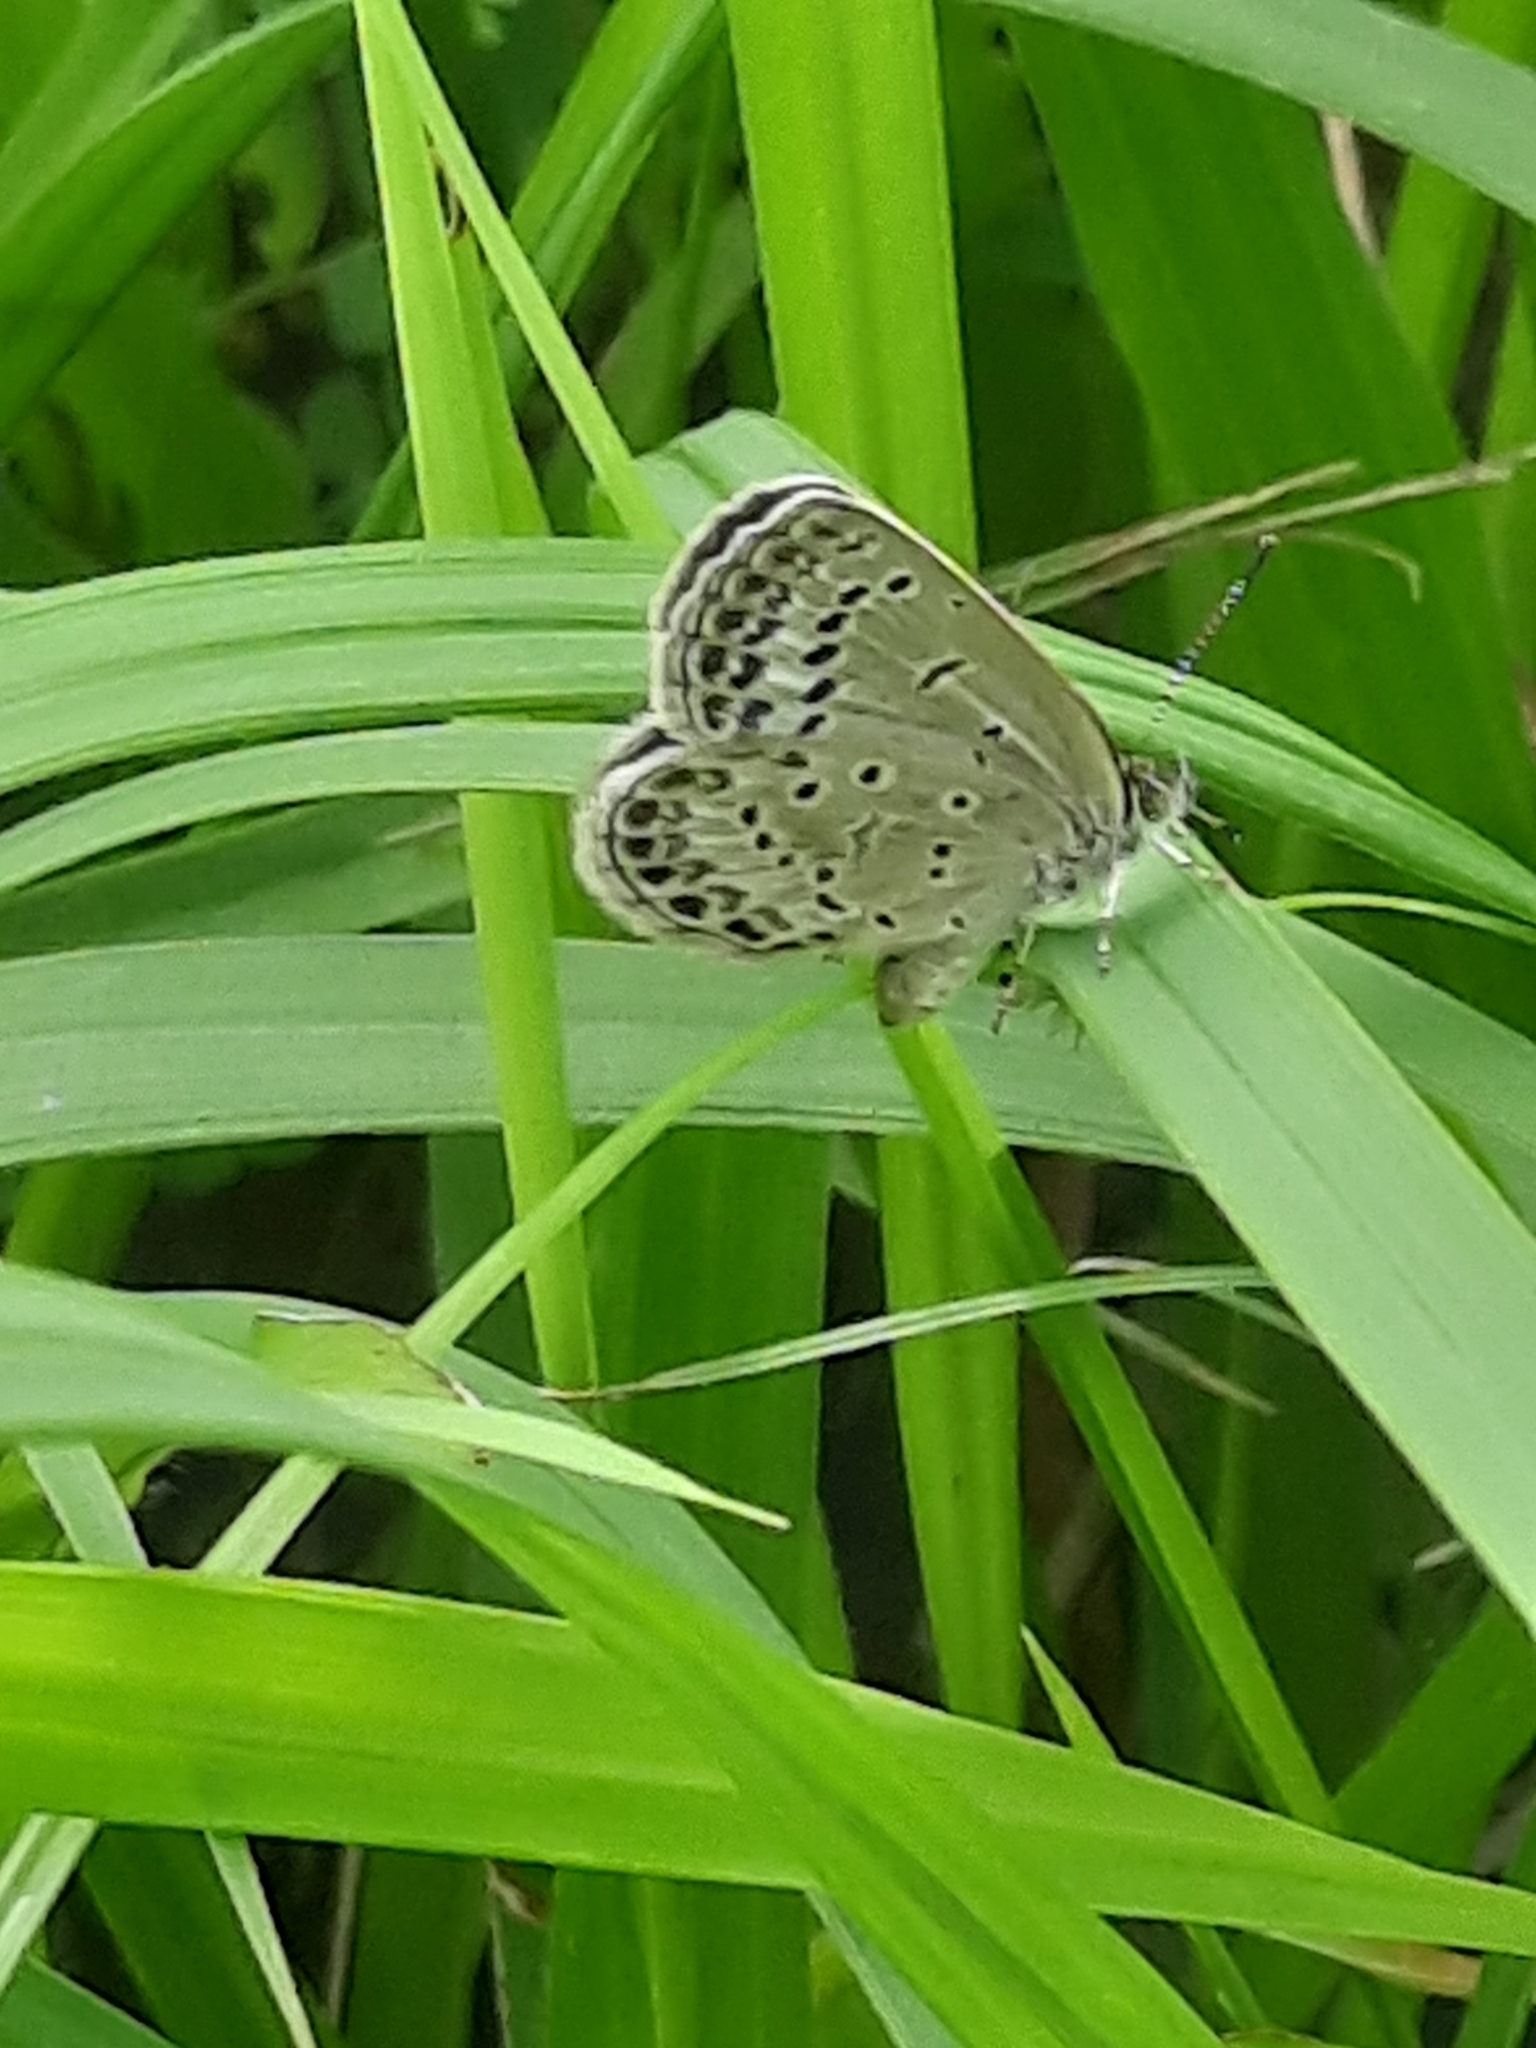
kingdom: Animalia
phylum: Arthropoda
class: Insecta
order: Lepidoptera
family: Lycaenidae
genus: Pseudozizeeria
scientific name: Pseudozizeeria maha
